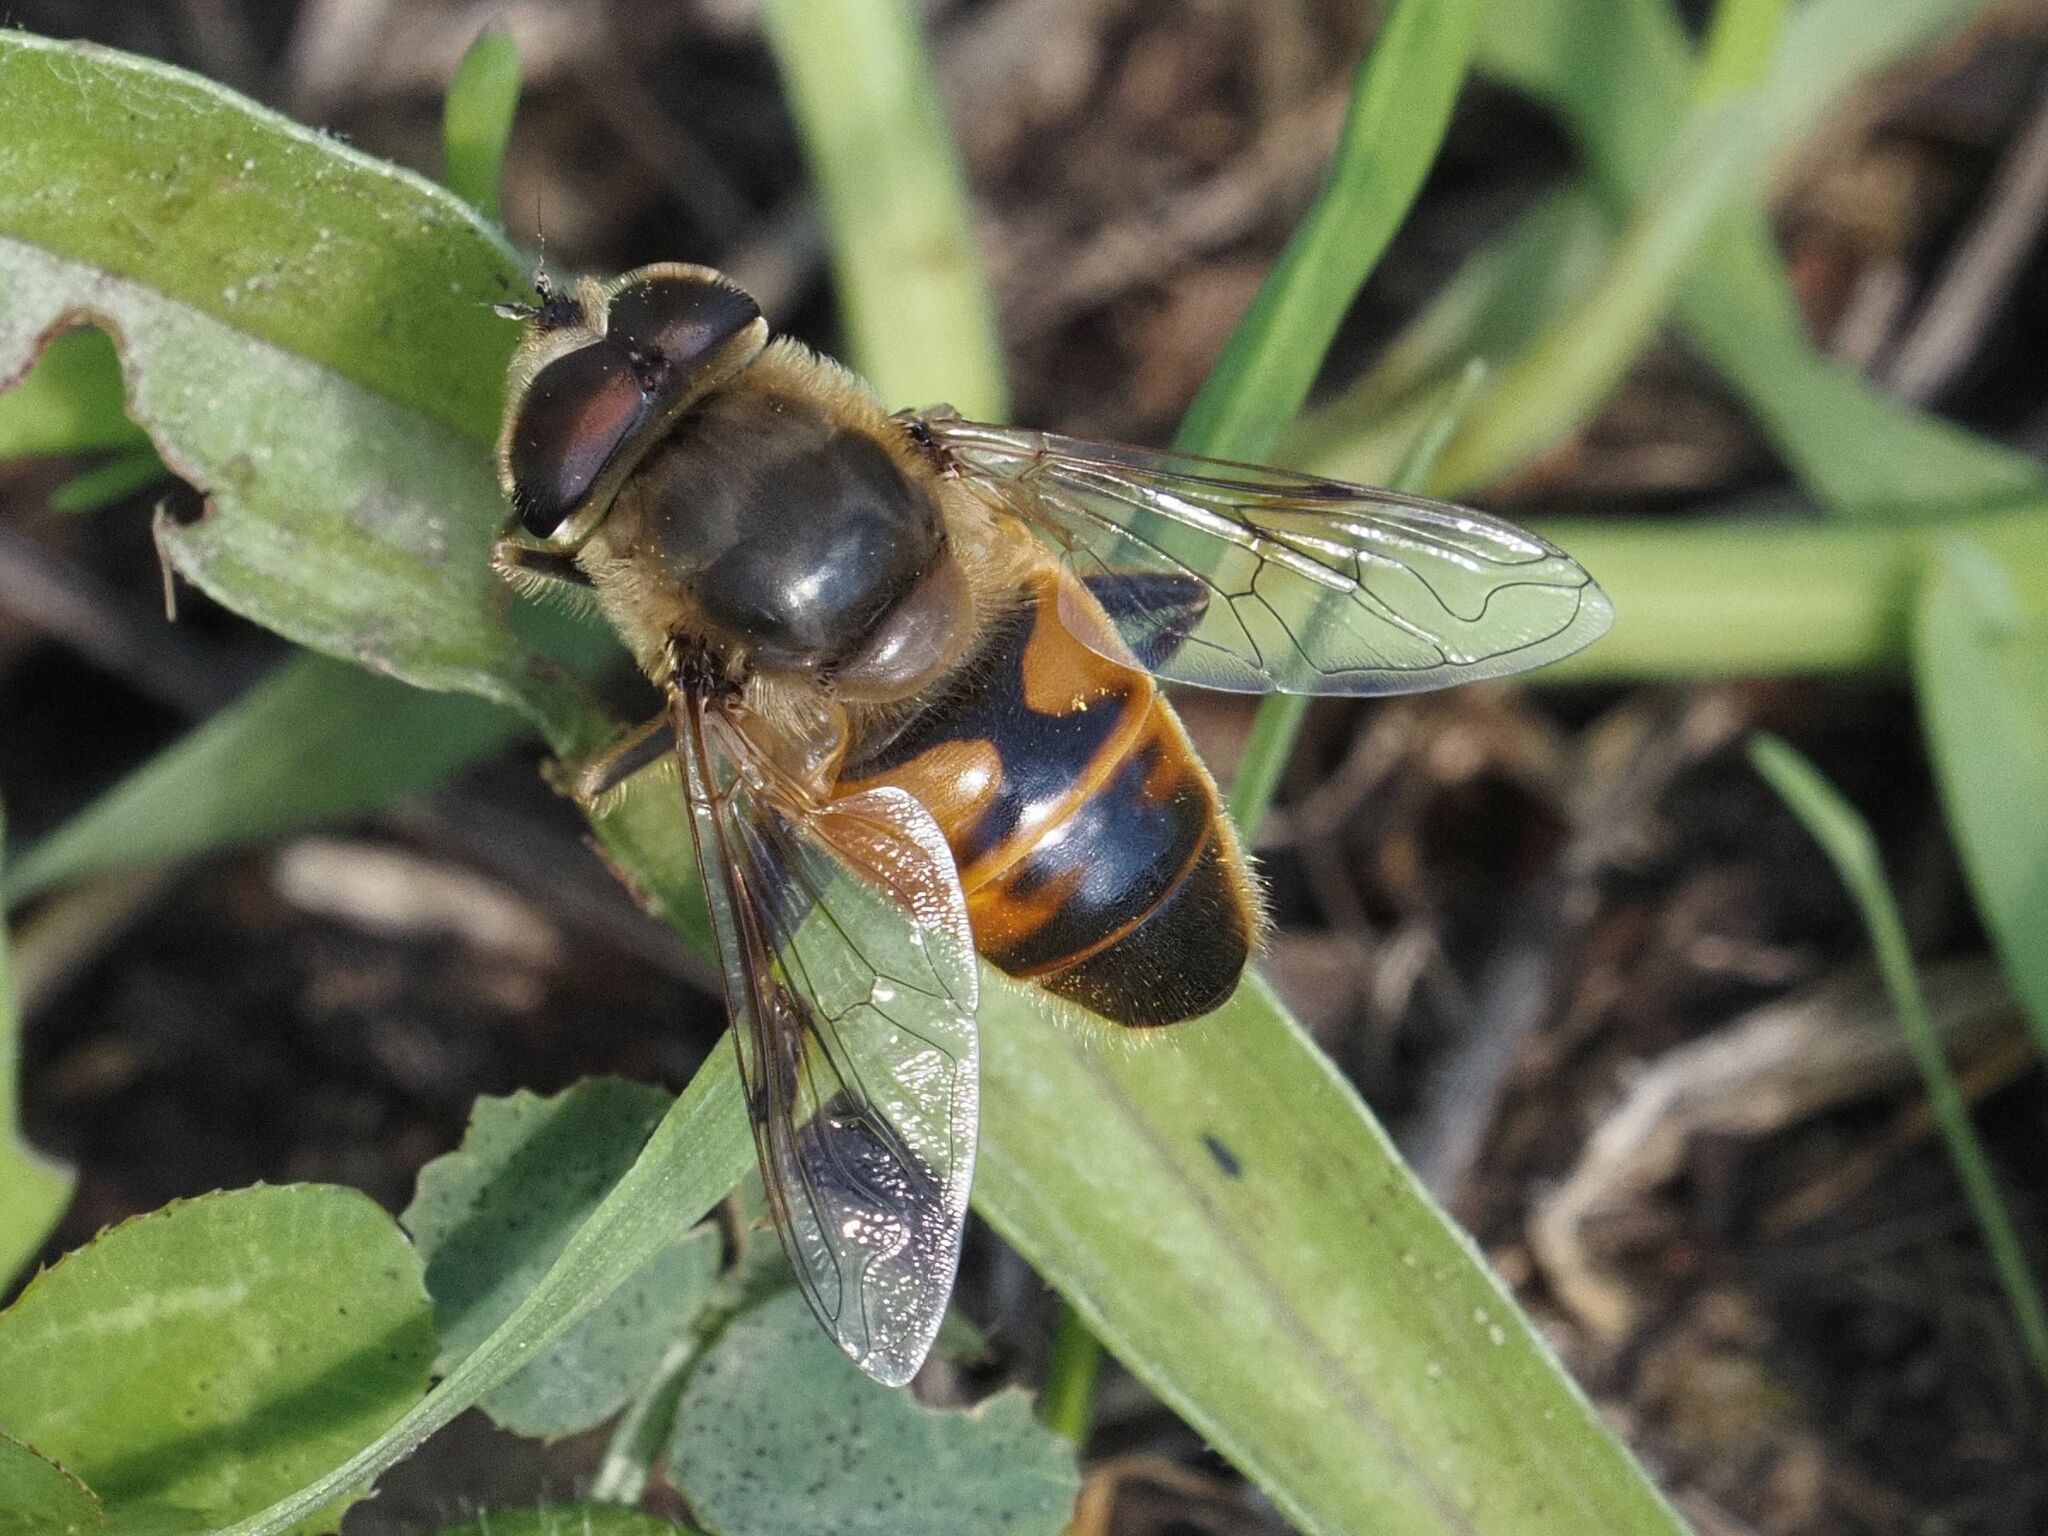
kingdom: Animalia
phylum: Arthropoda
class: Insecta
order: Diptera
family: Syrphidae
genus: Eristalis
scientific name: Eristalis tenax
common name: Drone fly
